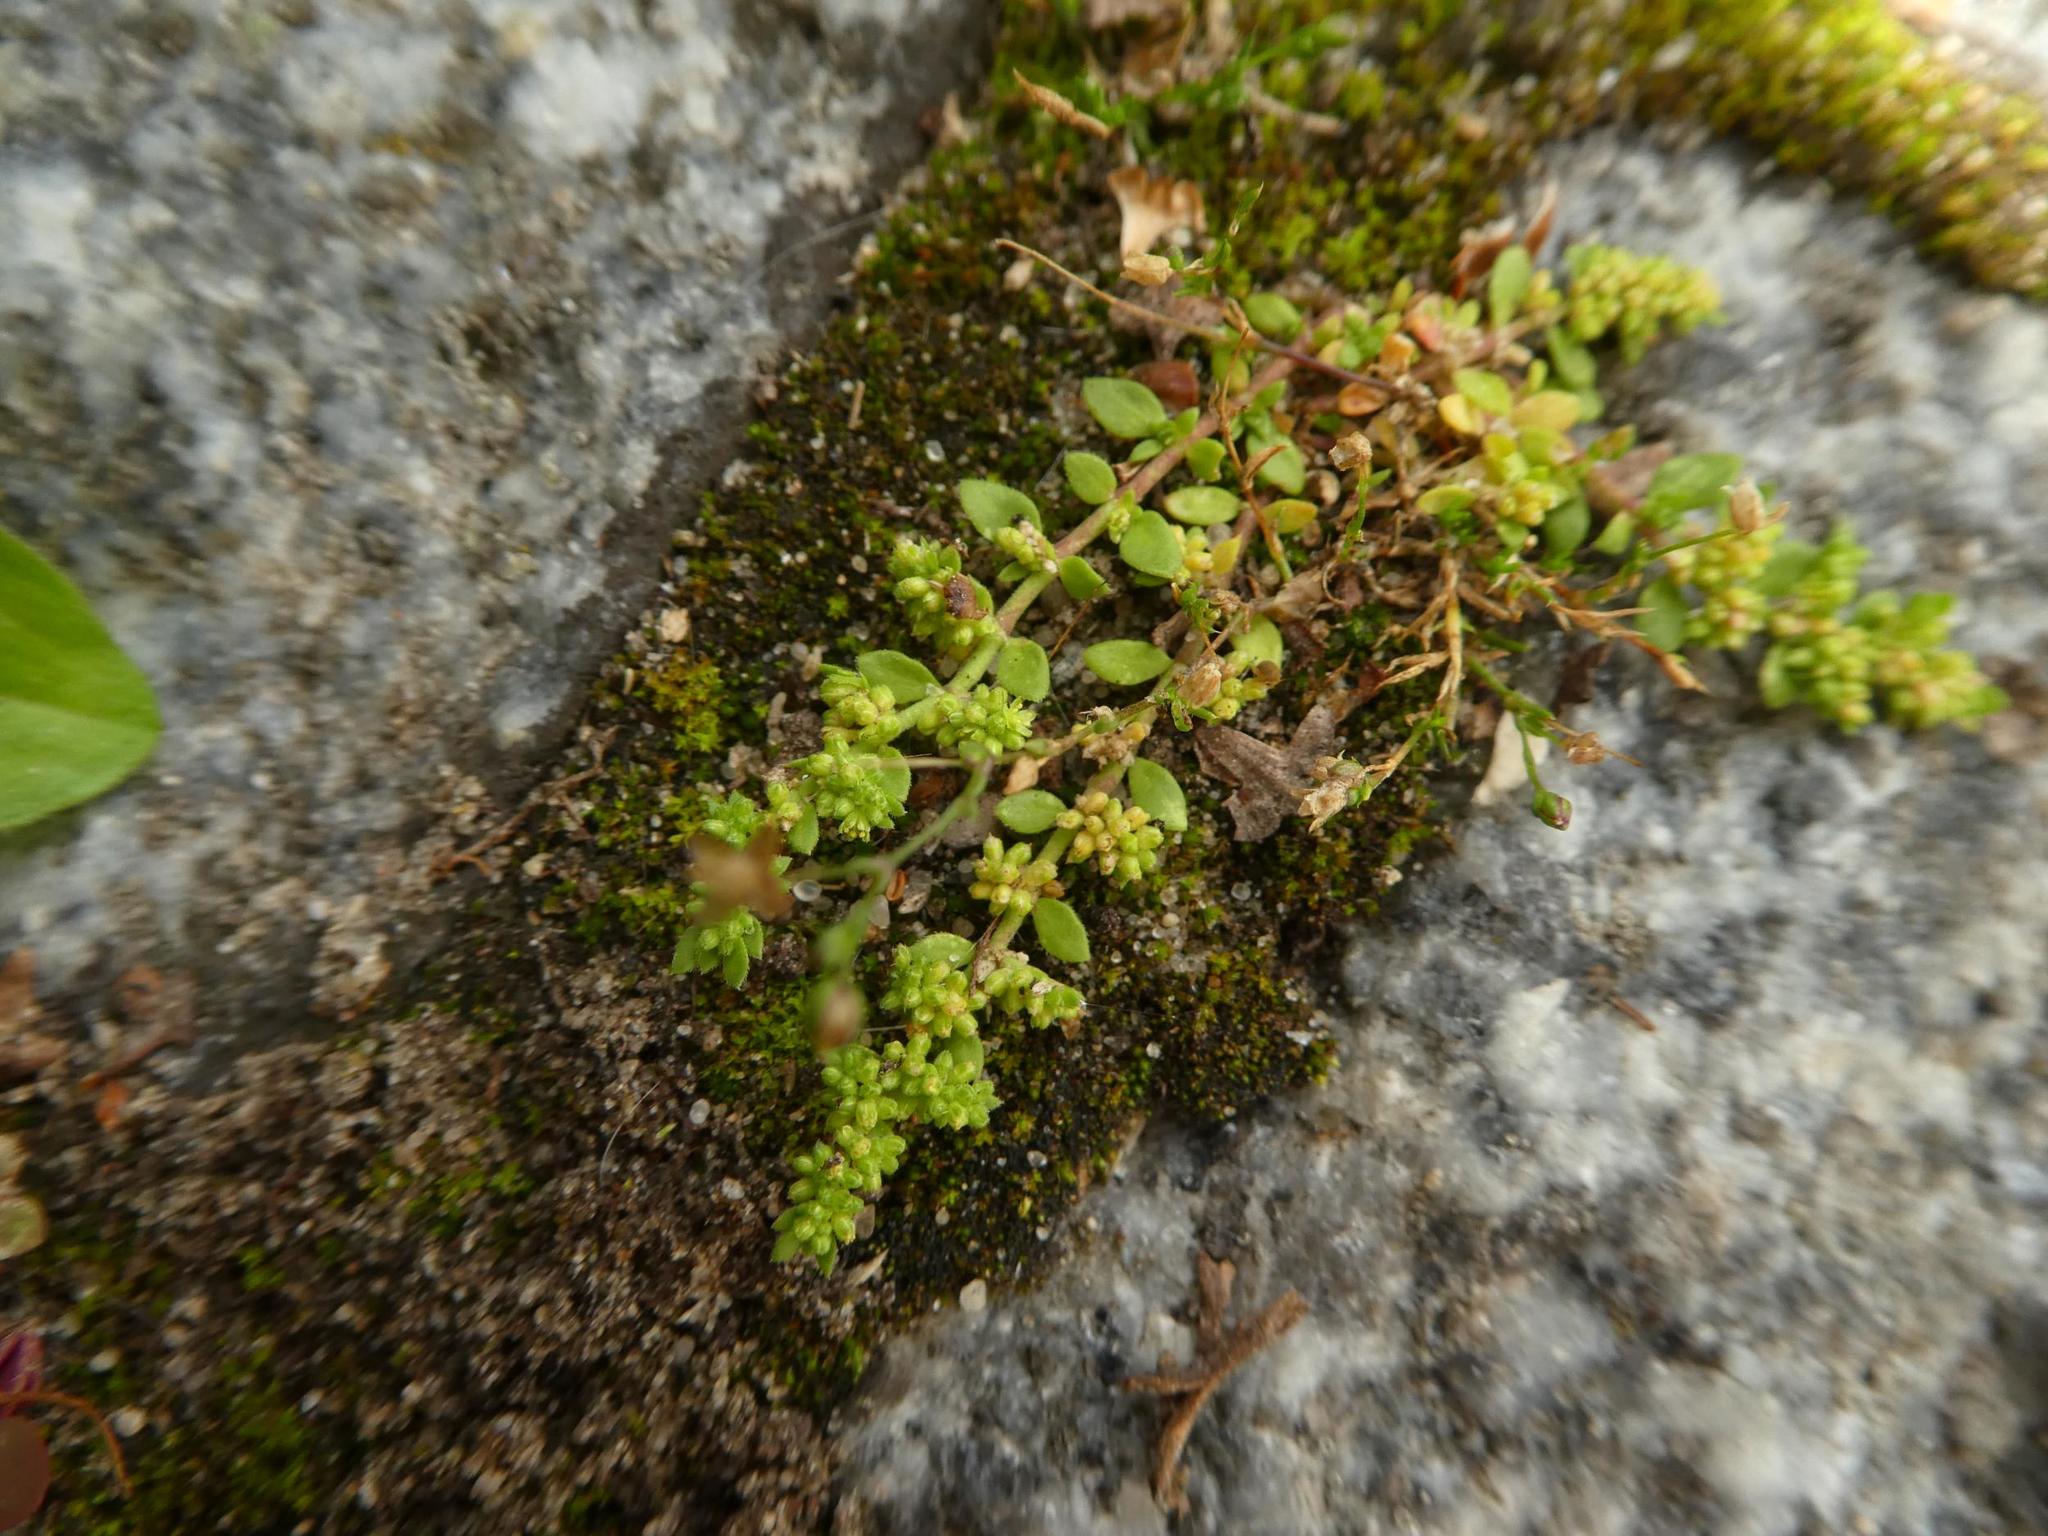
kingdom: Plantae
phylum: Tracheophyta
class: Magnoliopsida
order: Caryophyllales
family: Caryophyllaceae
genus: Herniaria
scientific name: Herniaria glabra
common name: Smooth rupturewort
